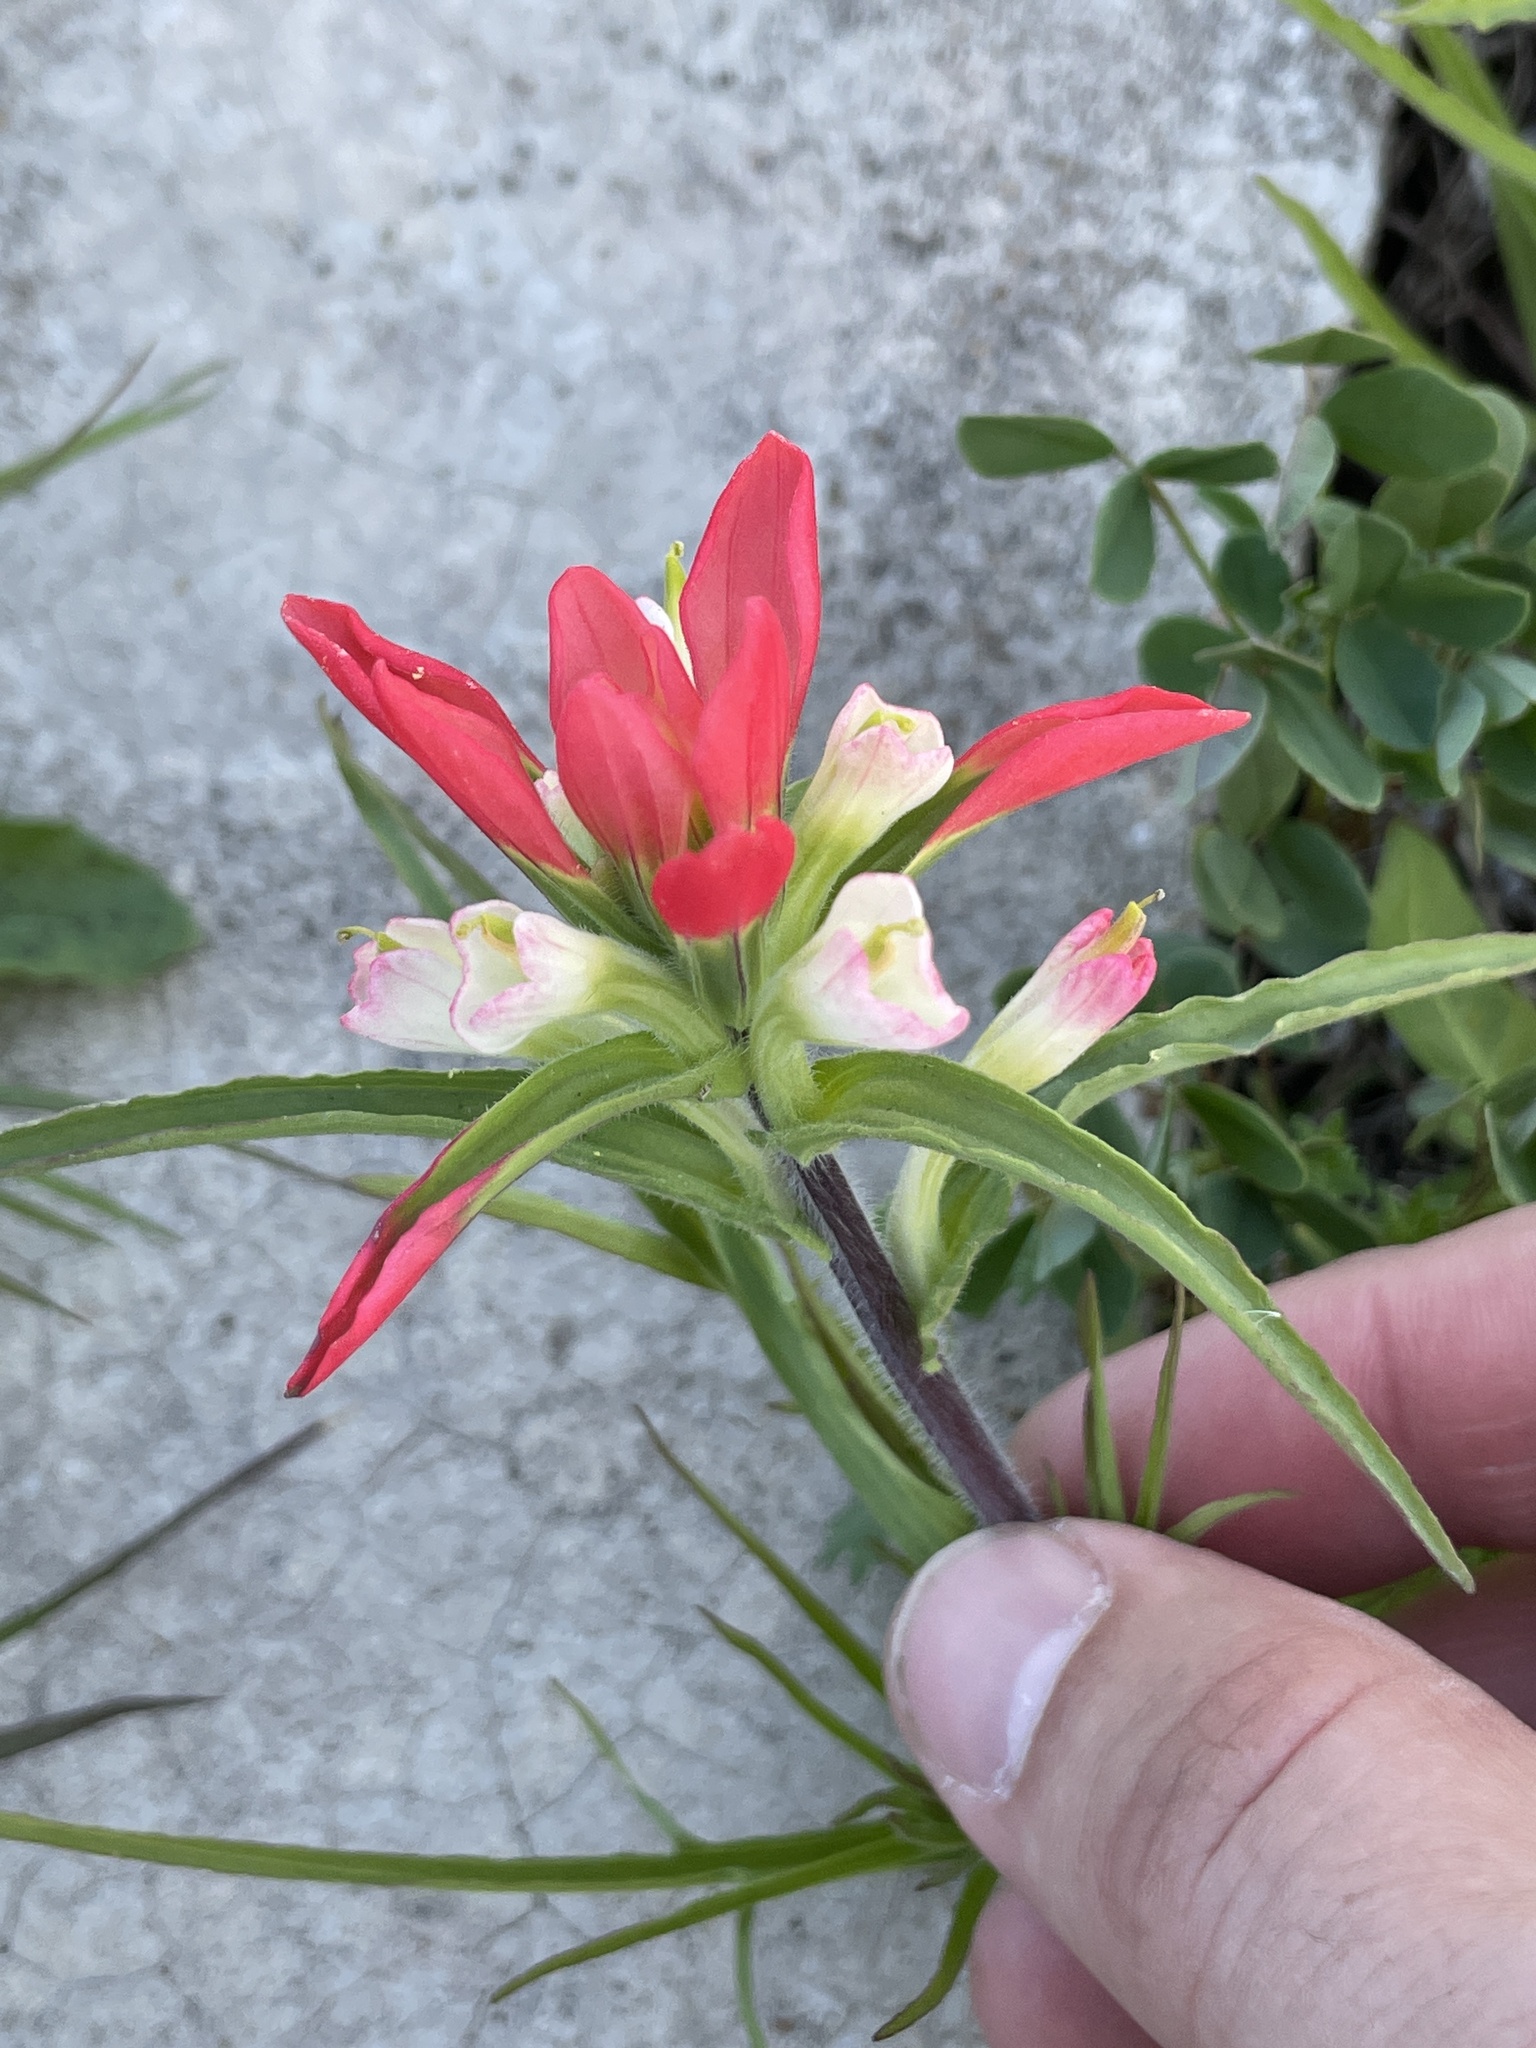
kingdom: Plantae
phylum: Tracheophyta
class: Magnoliopsida
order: Lamiales
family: Orobanchaceae
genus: Castilleja
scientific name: Castilleja indivisa
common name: Texas paintbrush
